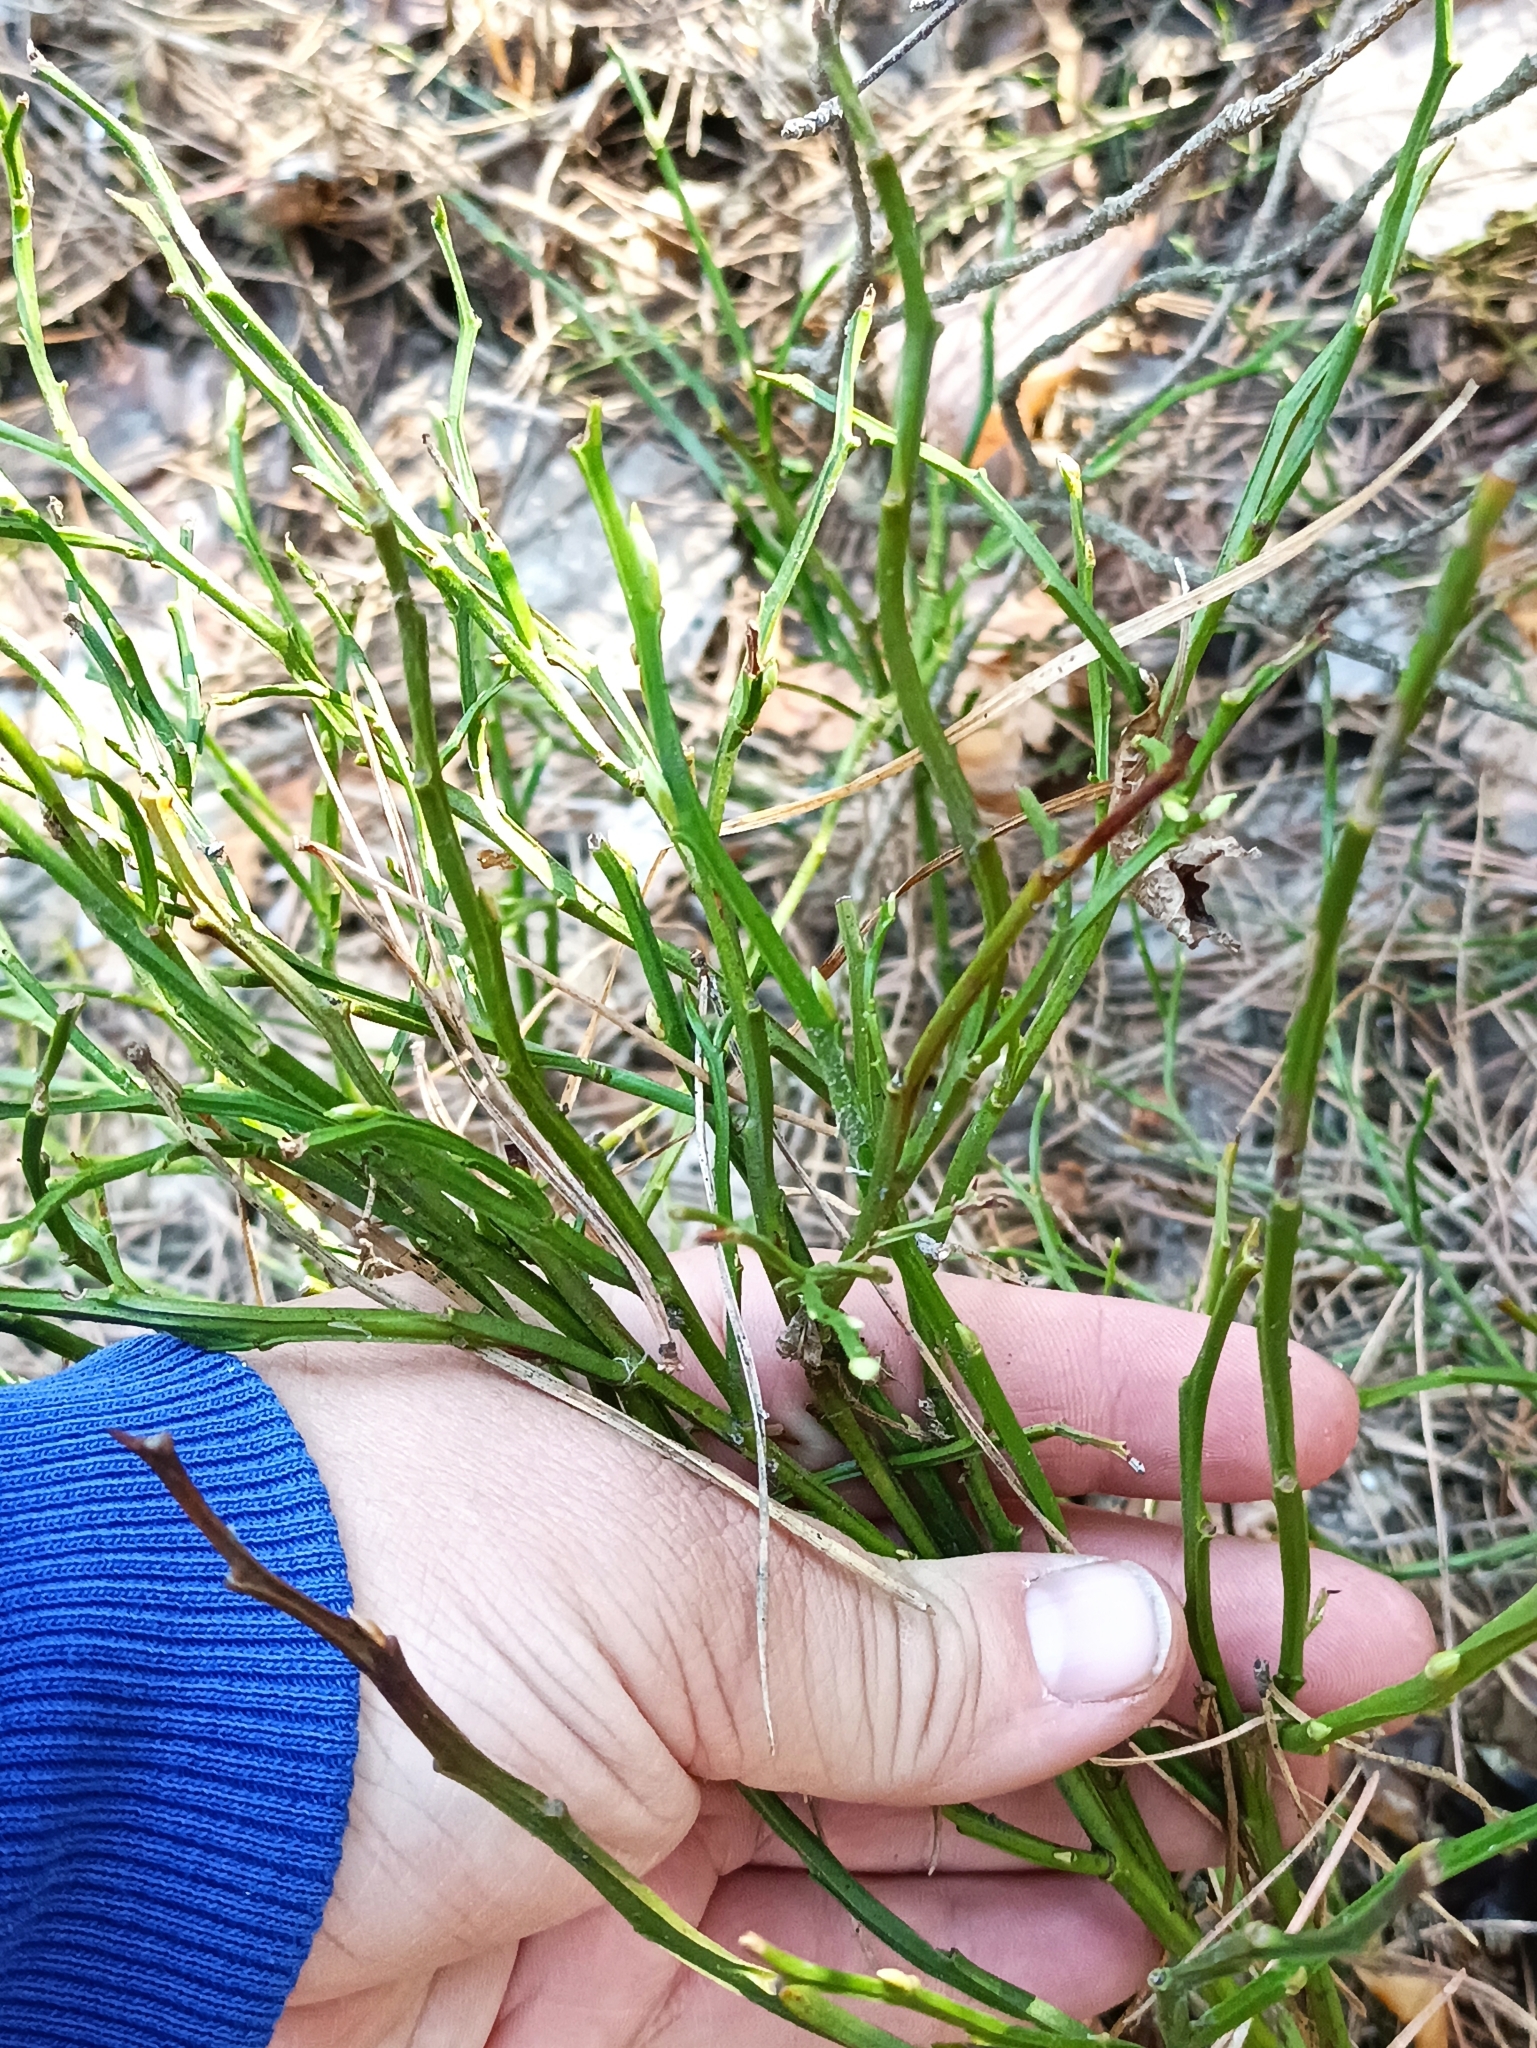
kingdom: Plantae
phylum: Tracheophyta
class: Magnoliopsida
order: Ericales
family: Ericaceae
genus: Vaccinium
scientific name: Vaccinium myrtillus
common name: Bilberry
